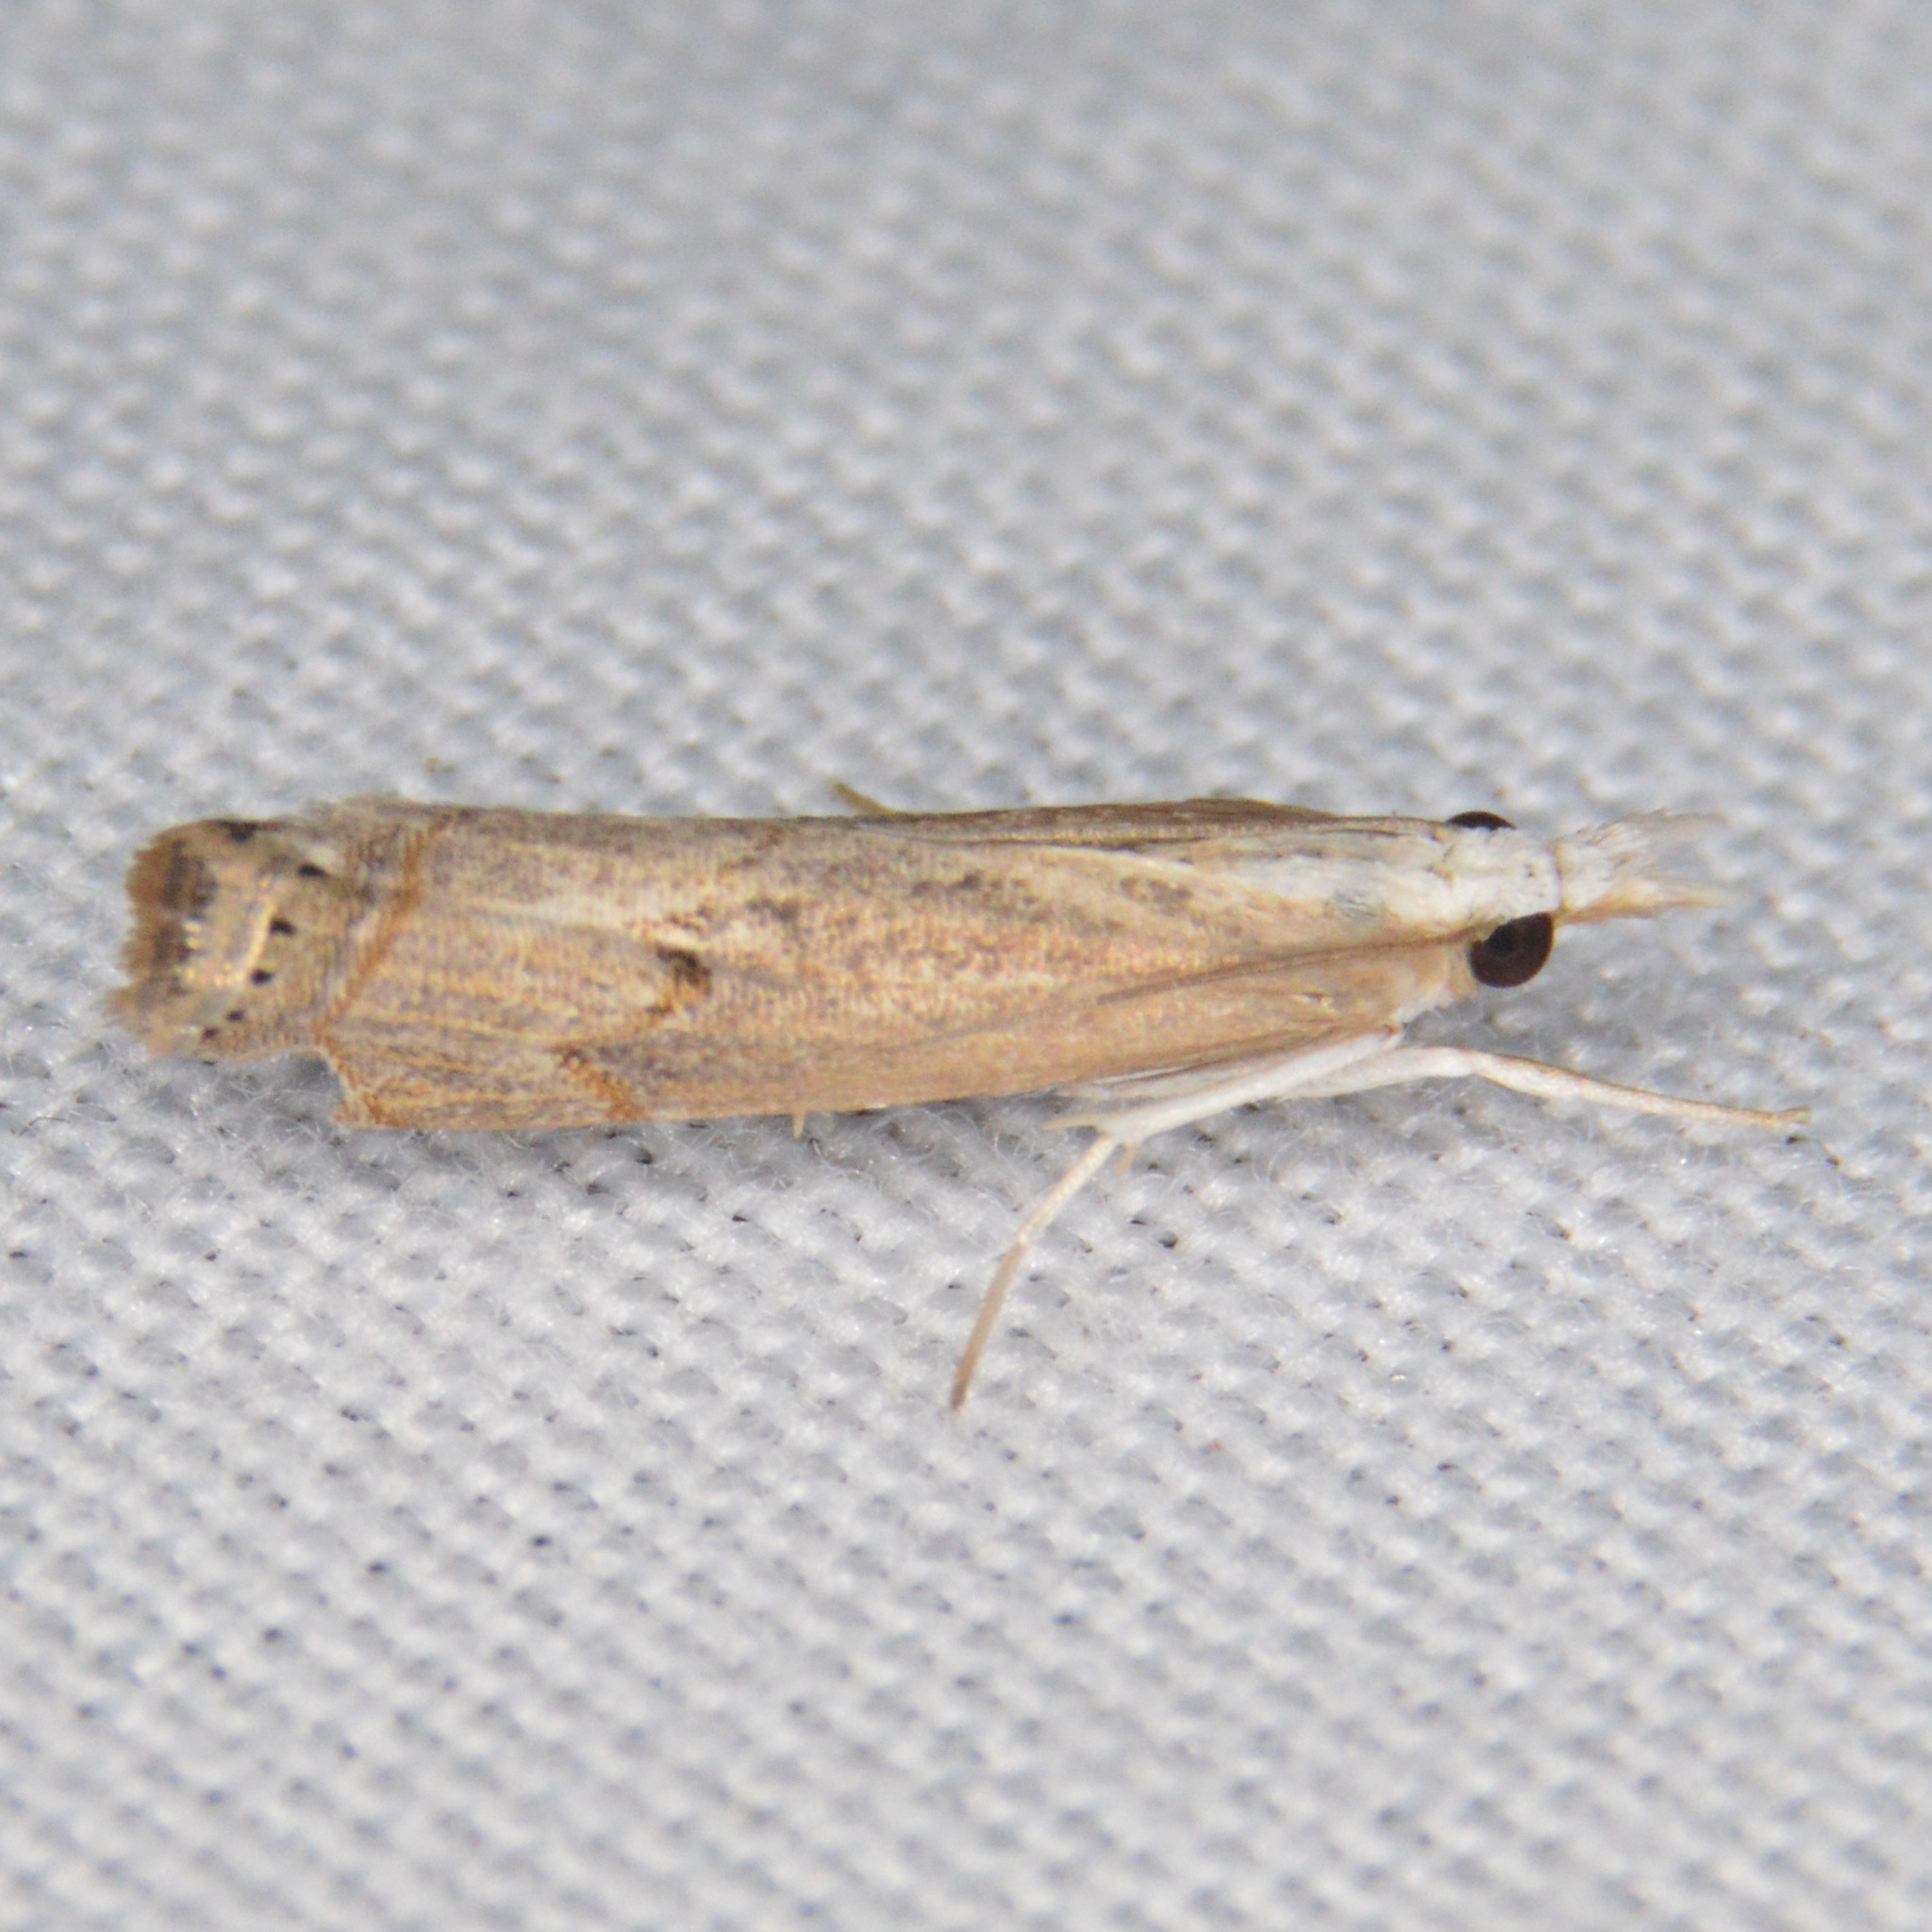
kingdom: Animalia
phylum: Arthropoda
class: Insecta
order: Lepidoptera
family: Crambidae
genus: Parapediasia
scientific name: Parapediasia teterellus
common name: Bluegrass webworm moth
